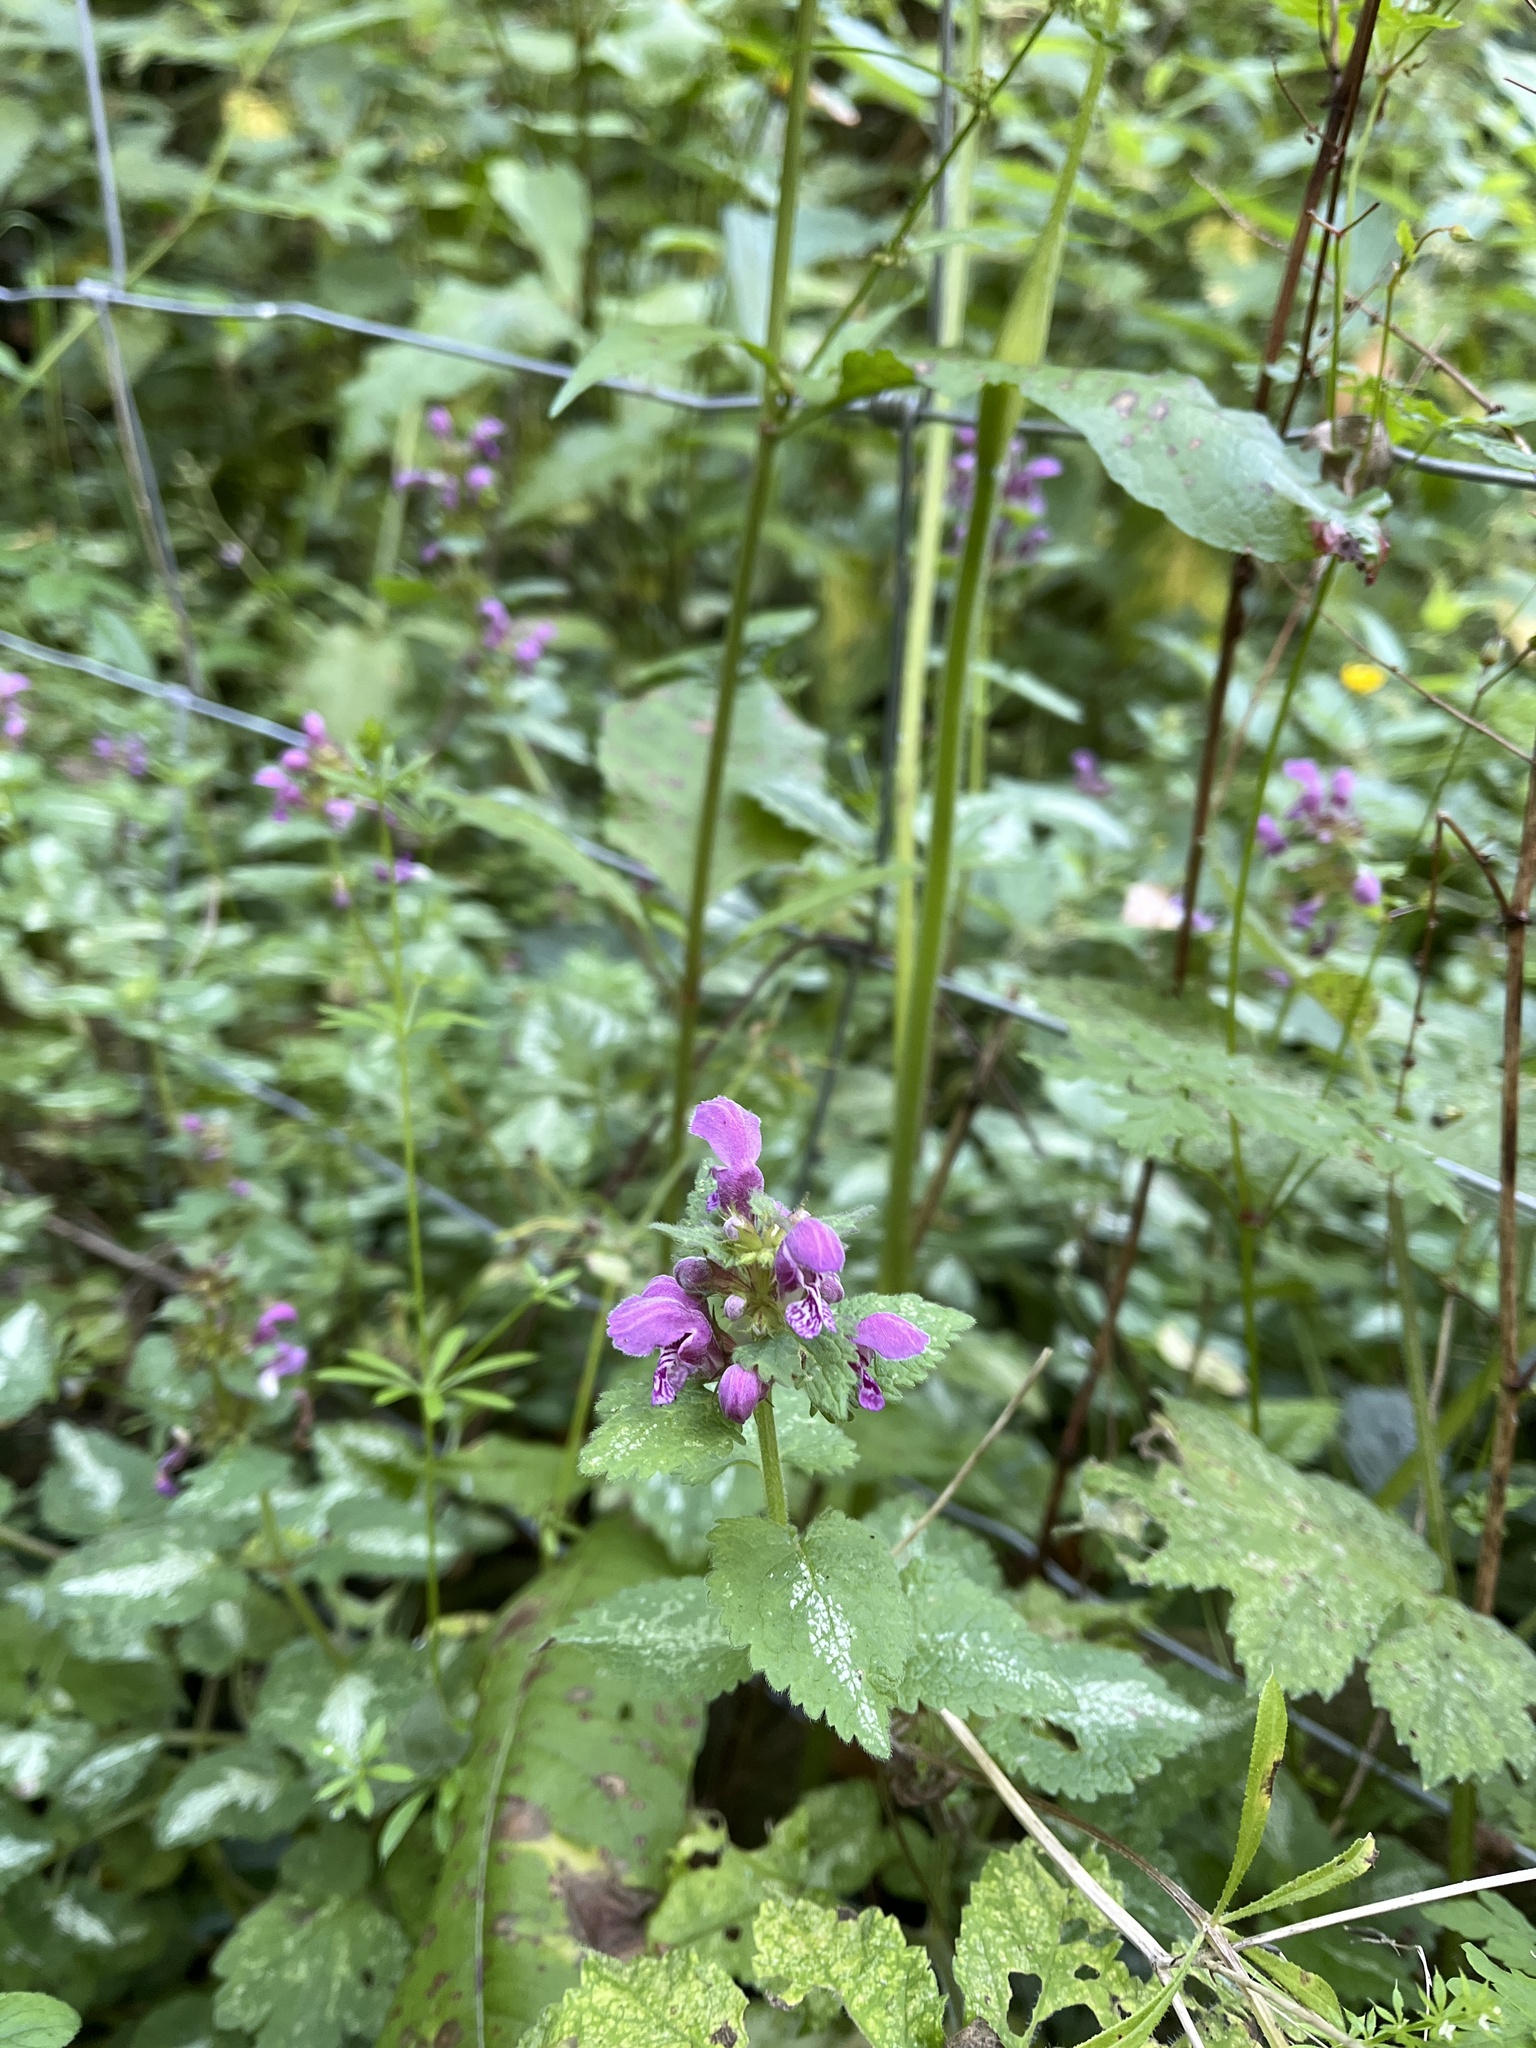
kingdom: Plantae
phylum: Tracheophyta
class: Magnoliopsida
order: Lamiales
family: Lamiaceae
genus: Lamium
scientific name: Lamium maculatum
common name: Spotted dead-nettle
